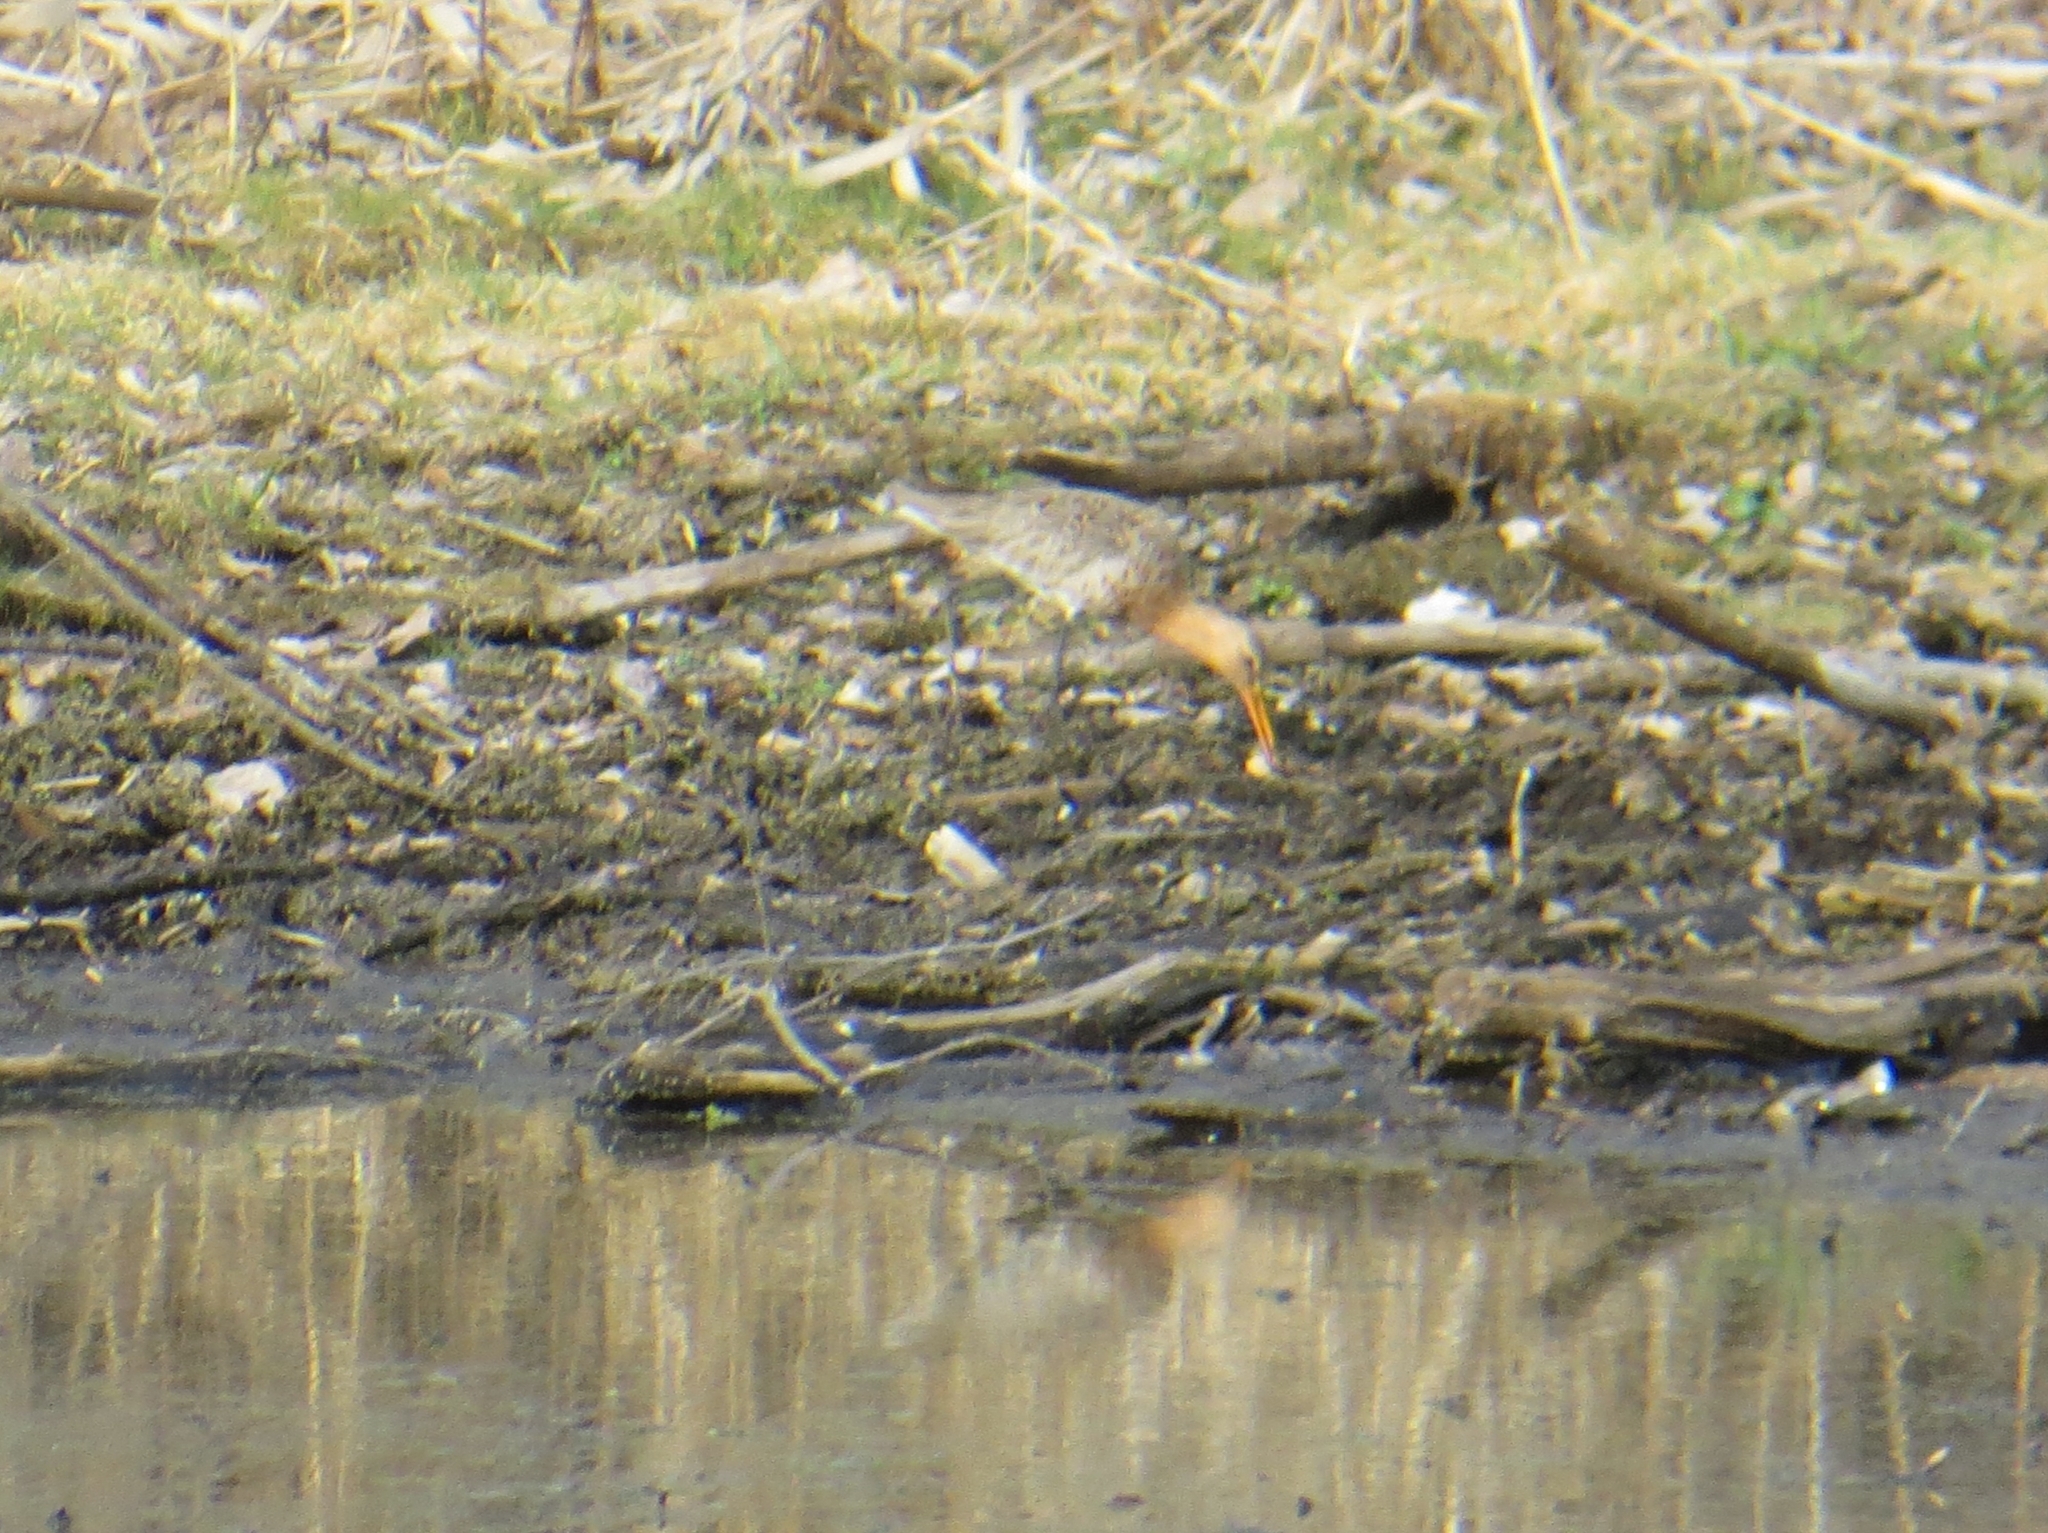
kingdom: Animalia
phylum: Chordata
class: Aves
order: Charadriiformes
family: Scolopacidae
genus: Limosa
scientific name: Limosa limosa
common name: Black-tailed godwit
